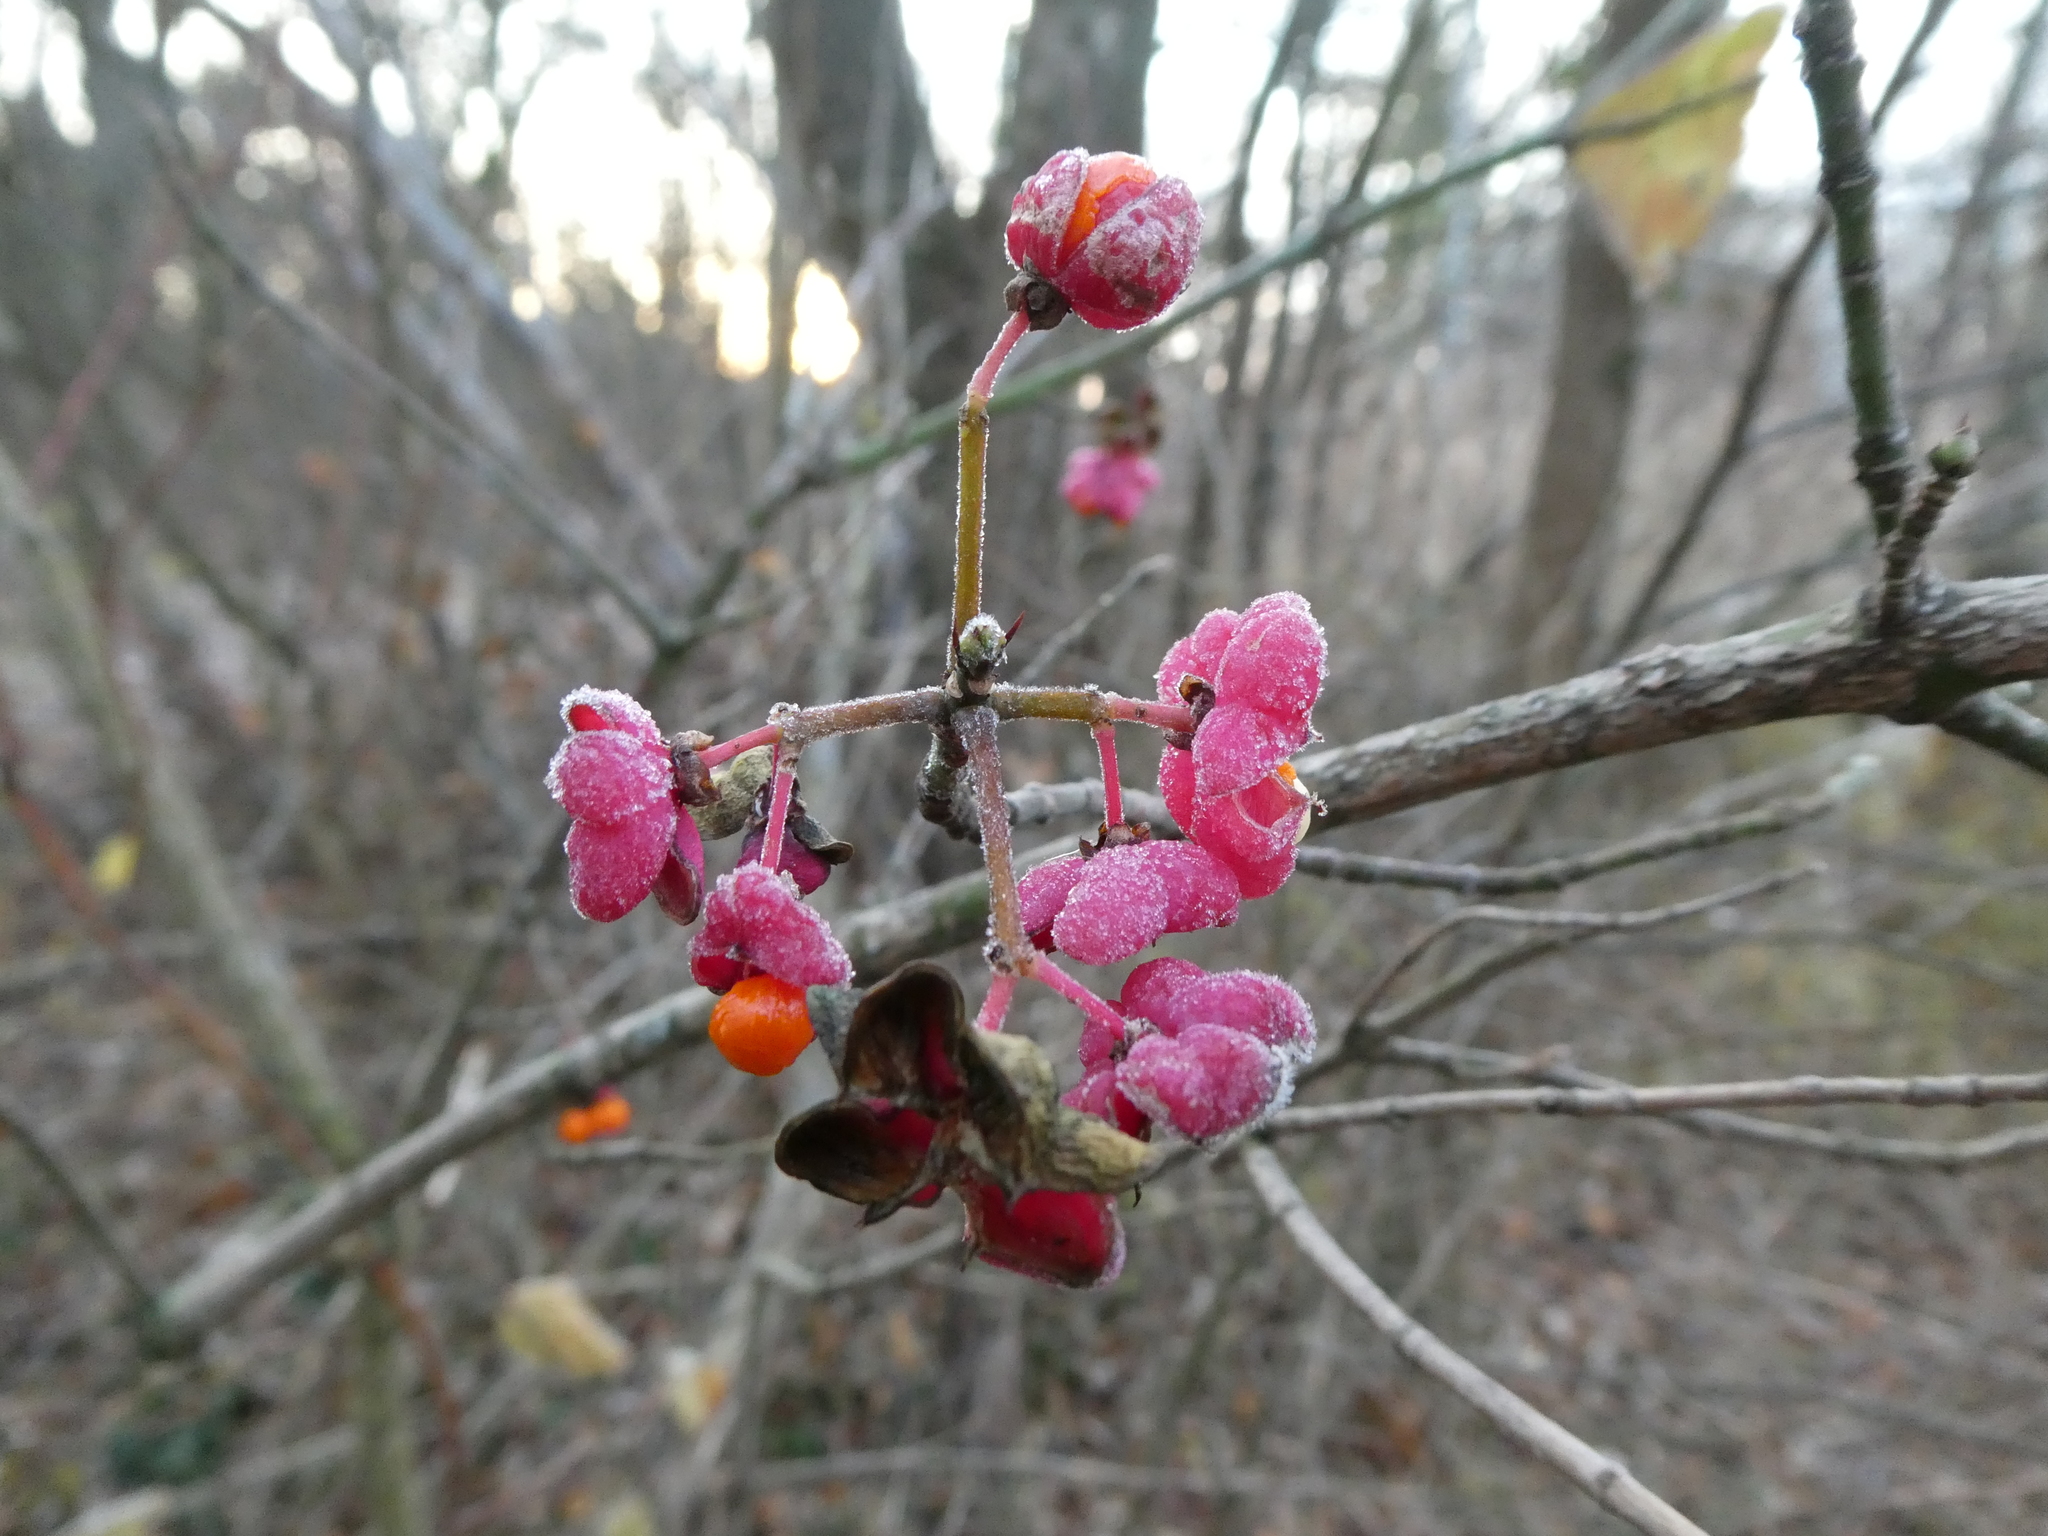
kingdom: Plantae
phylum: Tracheophyta
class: Magnoliopsida
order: Celastrales
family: Celastraceae
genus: Euonymus
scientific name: Euonymus europaeus
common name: Spindle
